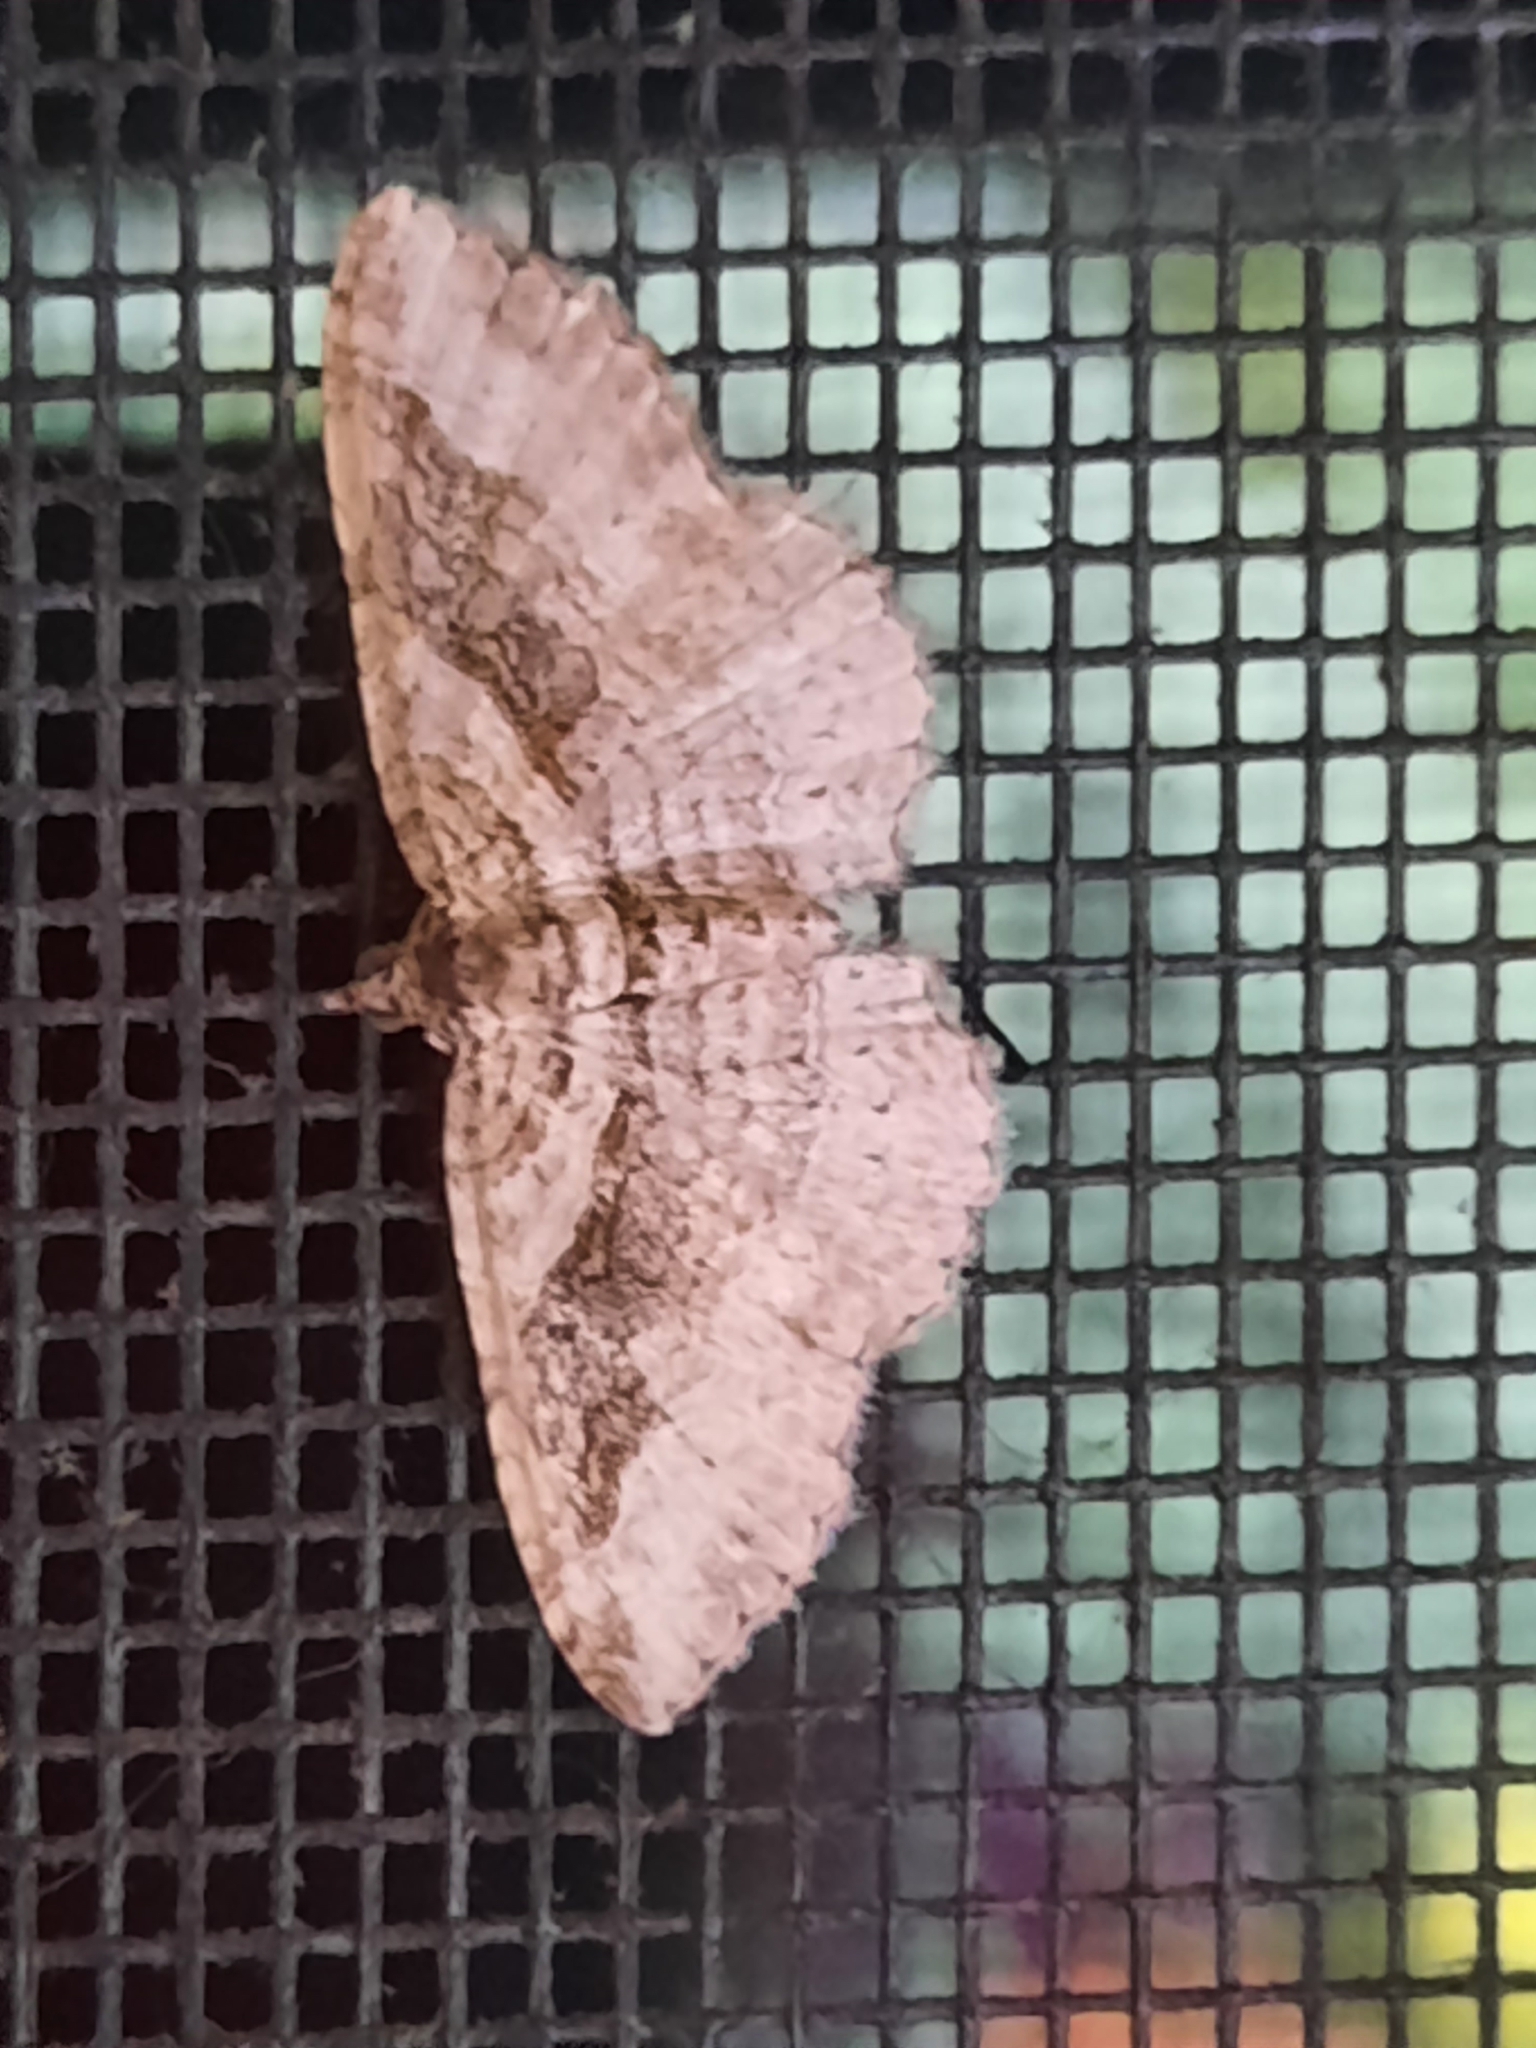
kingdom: Animalia
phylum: Arthropoda
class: Insecta
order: Lepidoptera
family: Geometridae
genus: Costaconvexa
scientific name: Costaconvexa centrostrigaria
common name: Bent-line carpet
